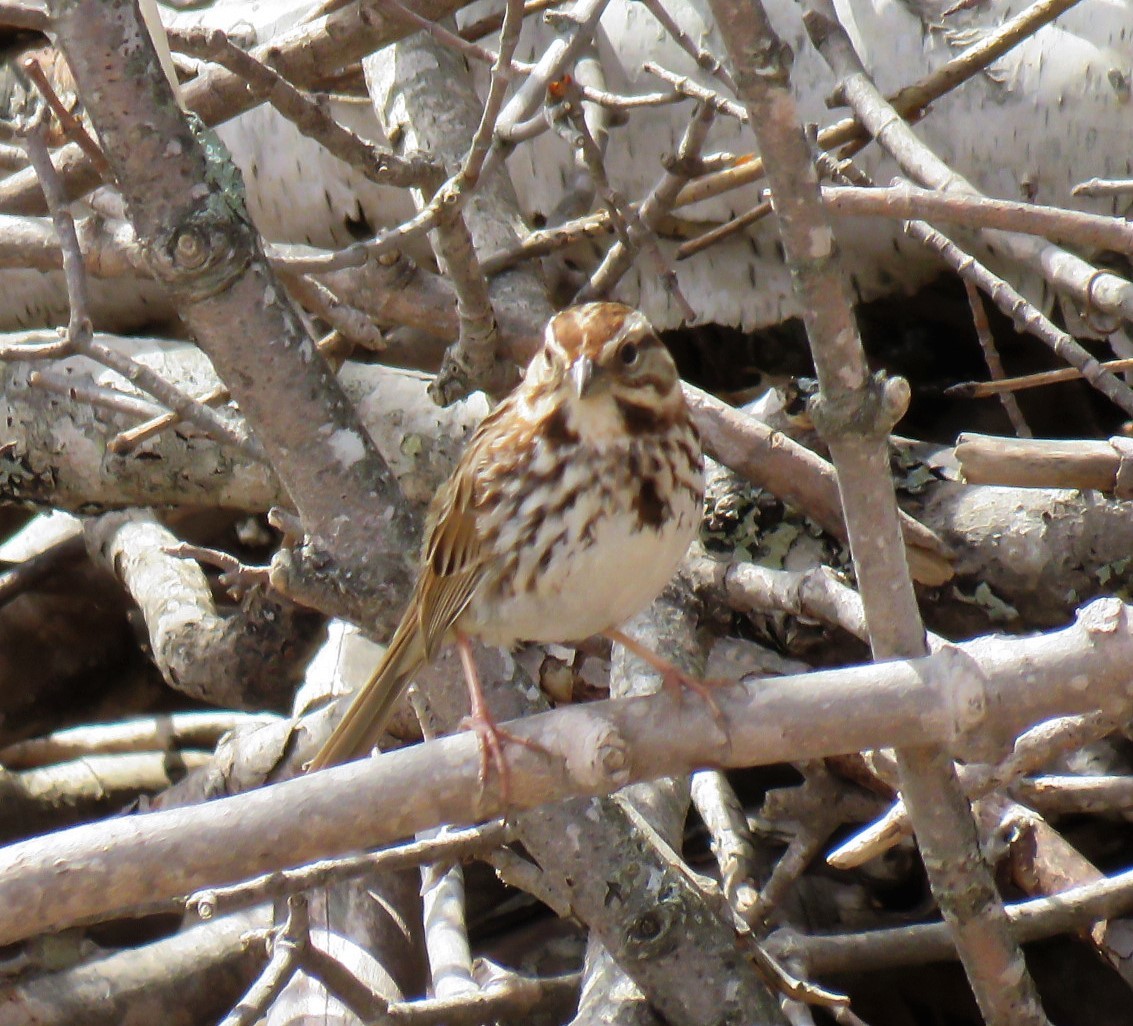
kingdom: Animalia
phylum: Chordata
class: Aves
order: Passeriformes
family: Passerellidae
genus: Melospiza
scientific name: Melospiza melodia
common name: Song sparrow
